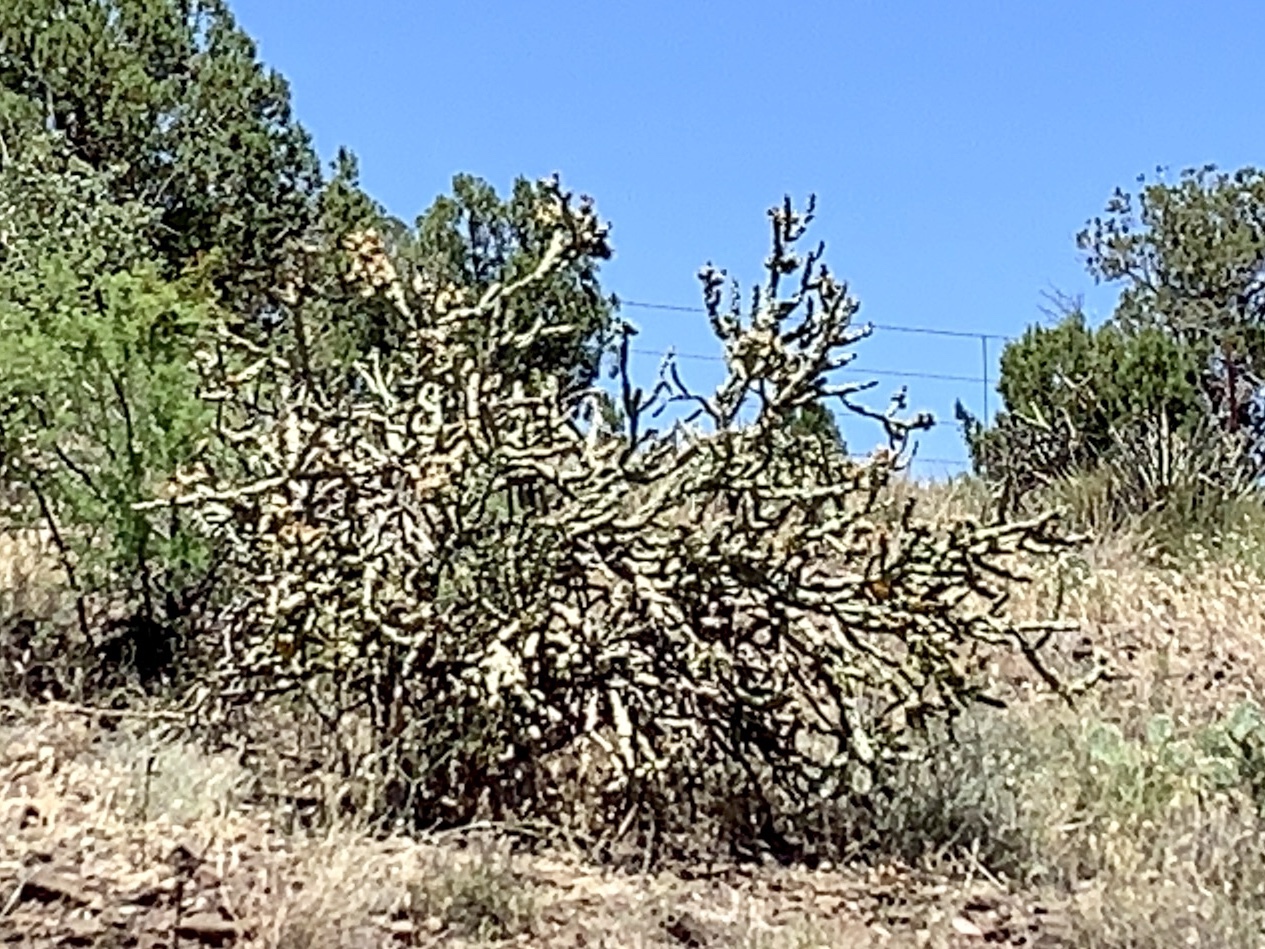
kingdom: Plantae
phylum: Tracheophyta
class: Magnoliopsida
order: Caryophyllales
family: Cactaceae
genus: Cylindropuntia
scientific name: Cylindropuntia acanthocarpa
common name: Buckhorn cholla
